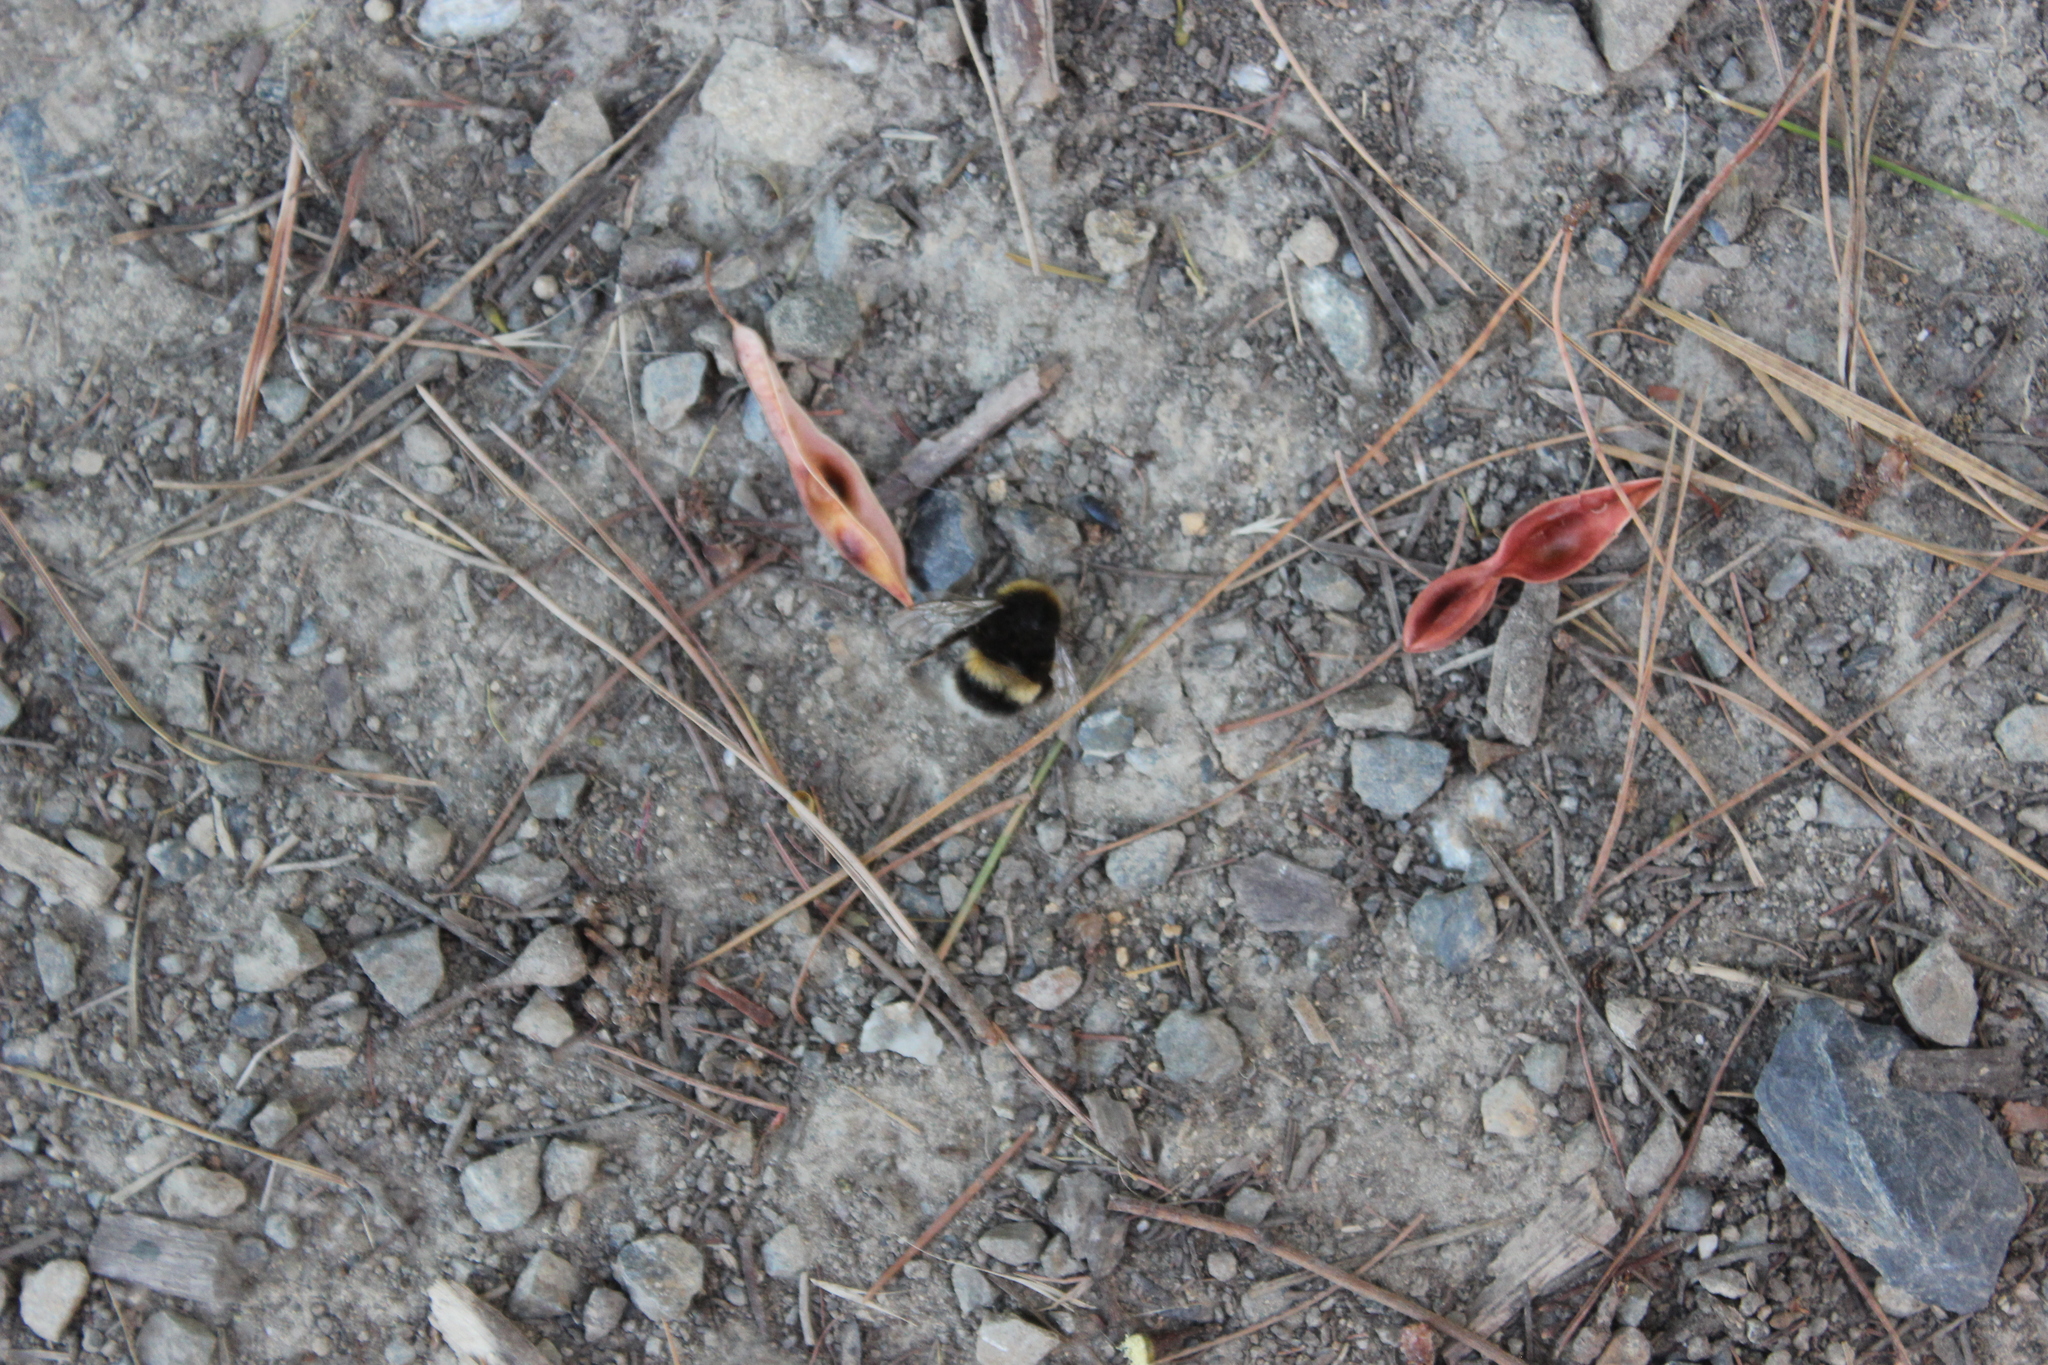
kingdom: Animalia
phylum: Arthropoda
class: Insecta
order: Hymenoptera
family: Apidae
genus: Bombus
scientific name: Bombus terrestris
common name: Buff-tailed bumblebee
